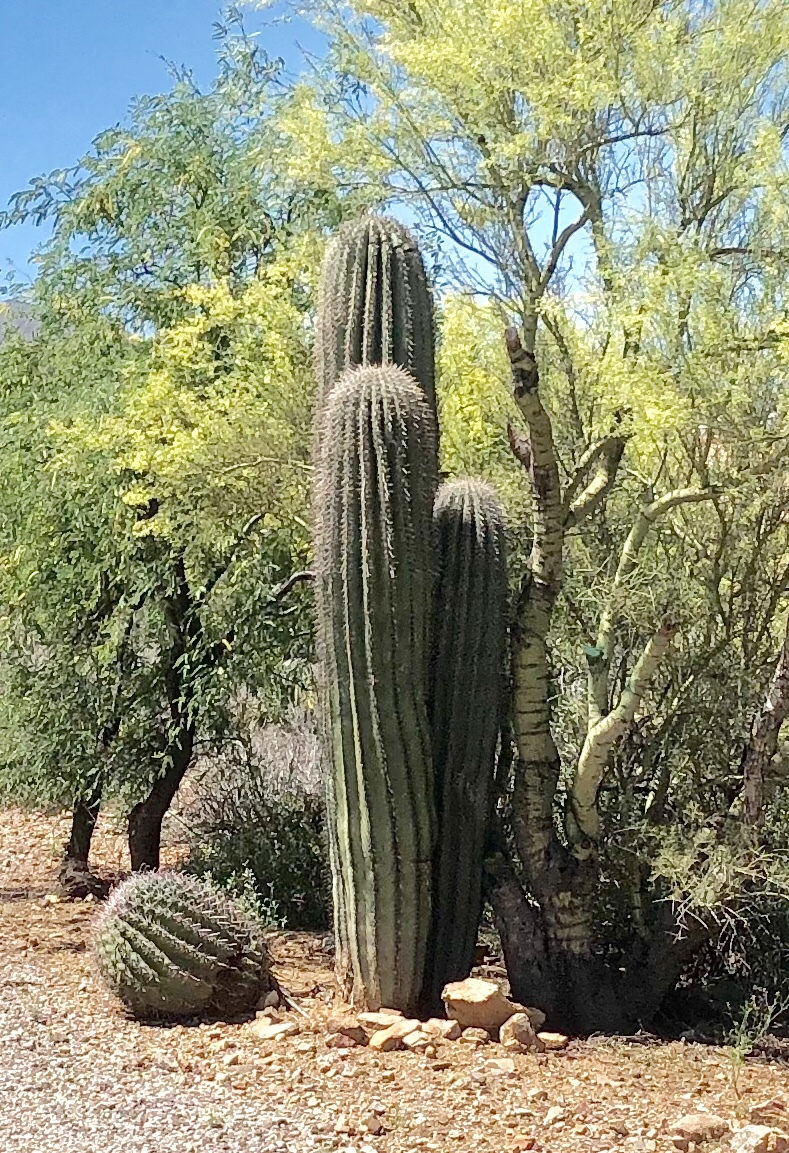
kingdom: Plantae
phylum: Tracheophyta
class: Magnoliopsida
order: Caryophyllales
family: Cactaceae
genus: Carnegiea
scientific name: Carnegiea gigantea
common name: Saguaro
